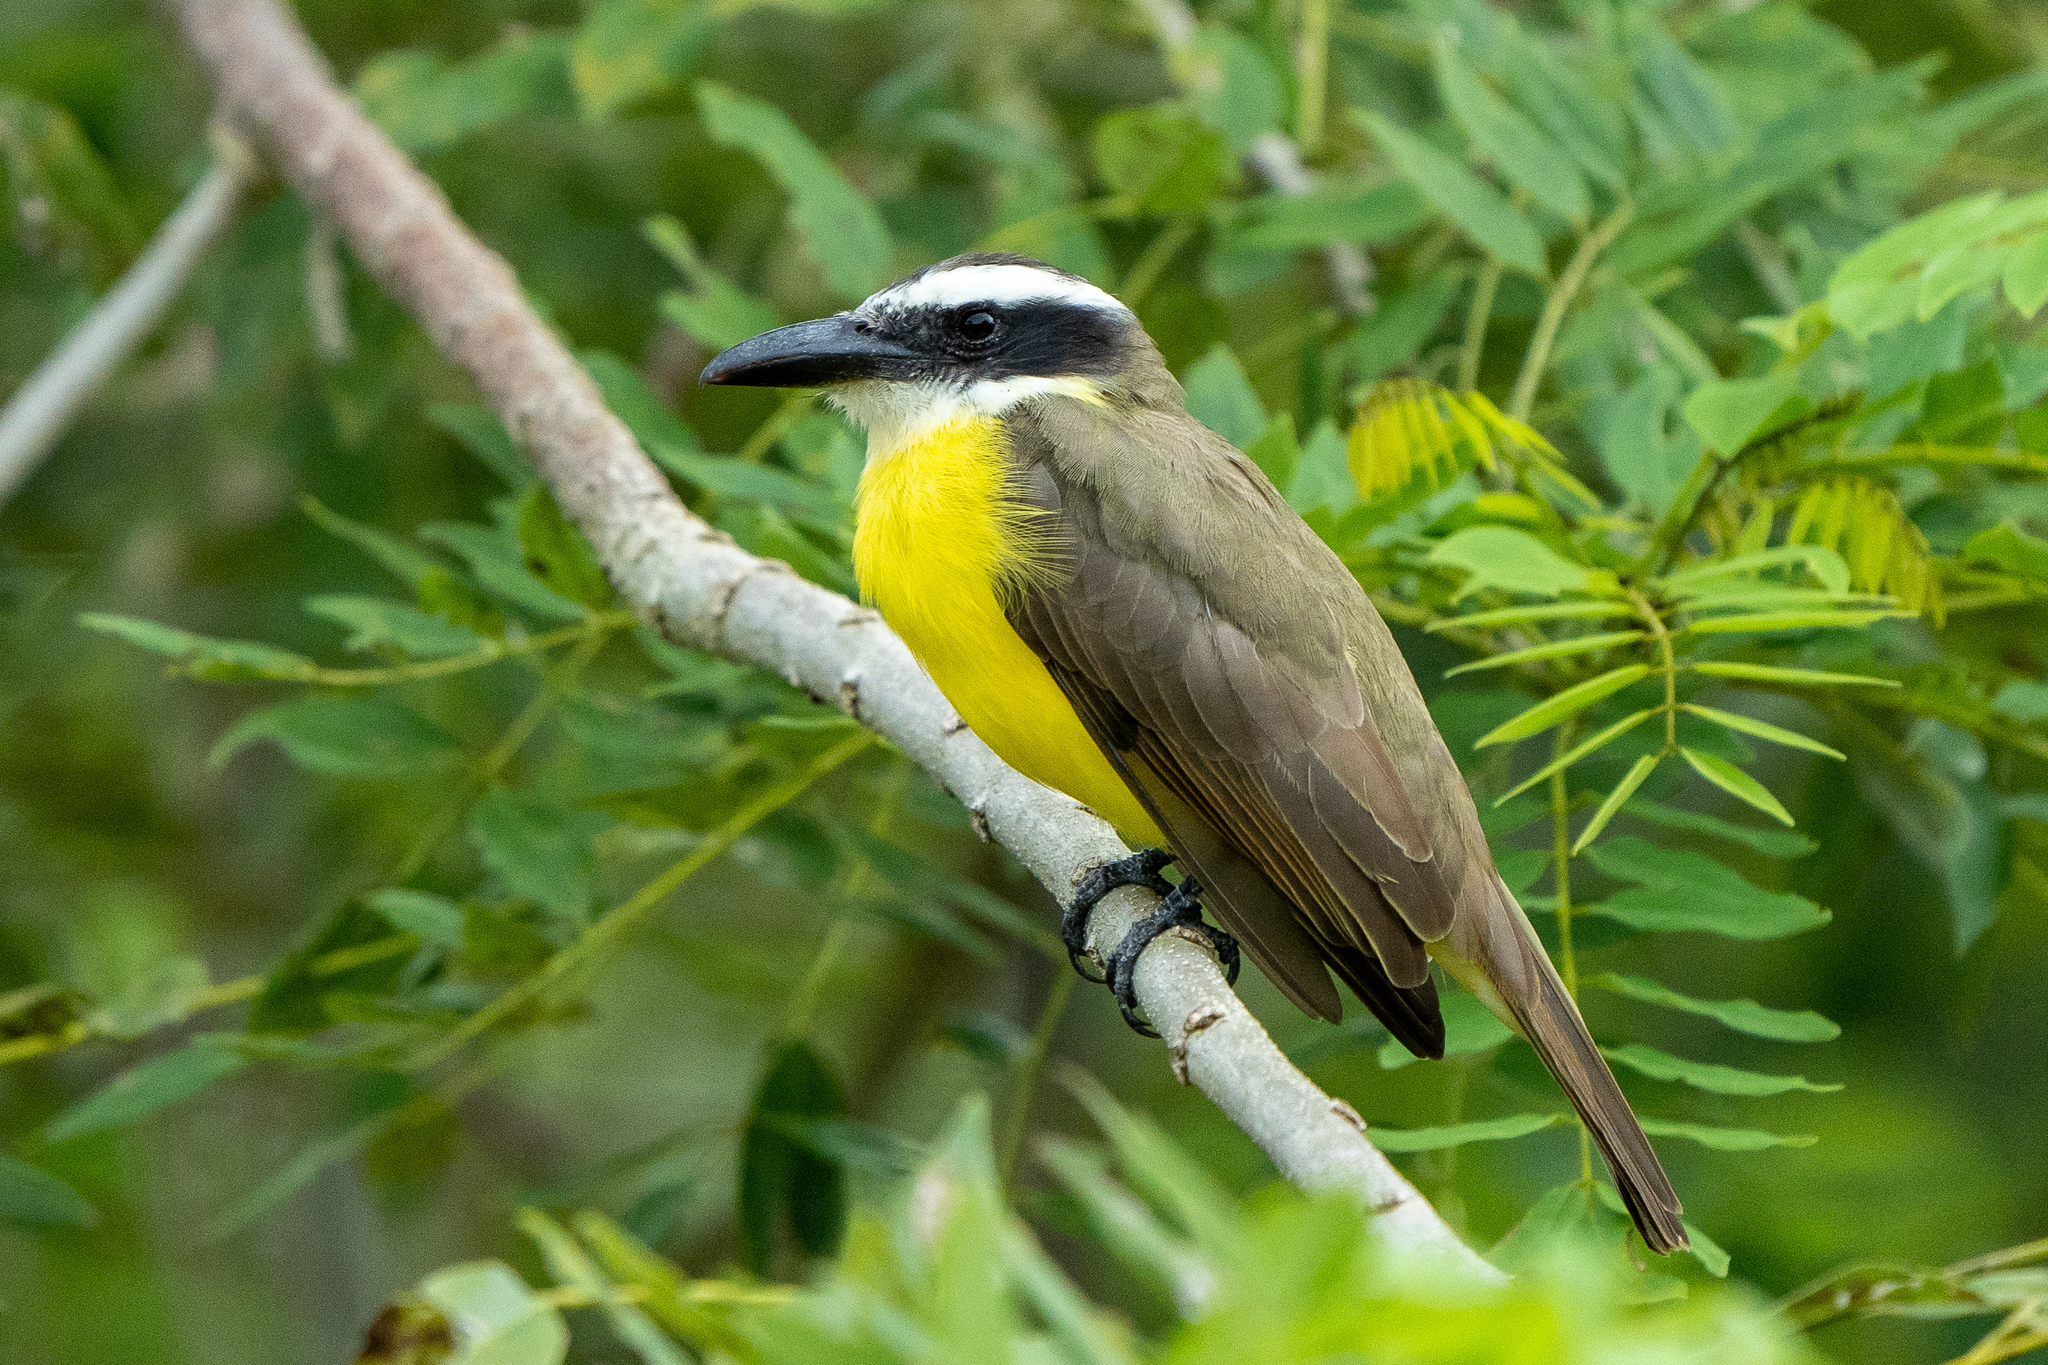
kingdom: Animalia
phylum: Chordata
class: Aves
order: Passeriformes
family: Tyrannidae
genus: Megarynchus
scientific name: Megarynchus pitangua
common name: Boat-billed flycatcher
